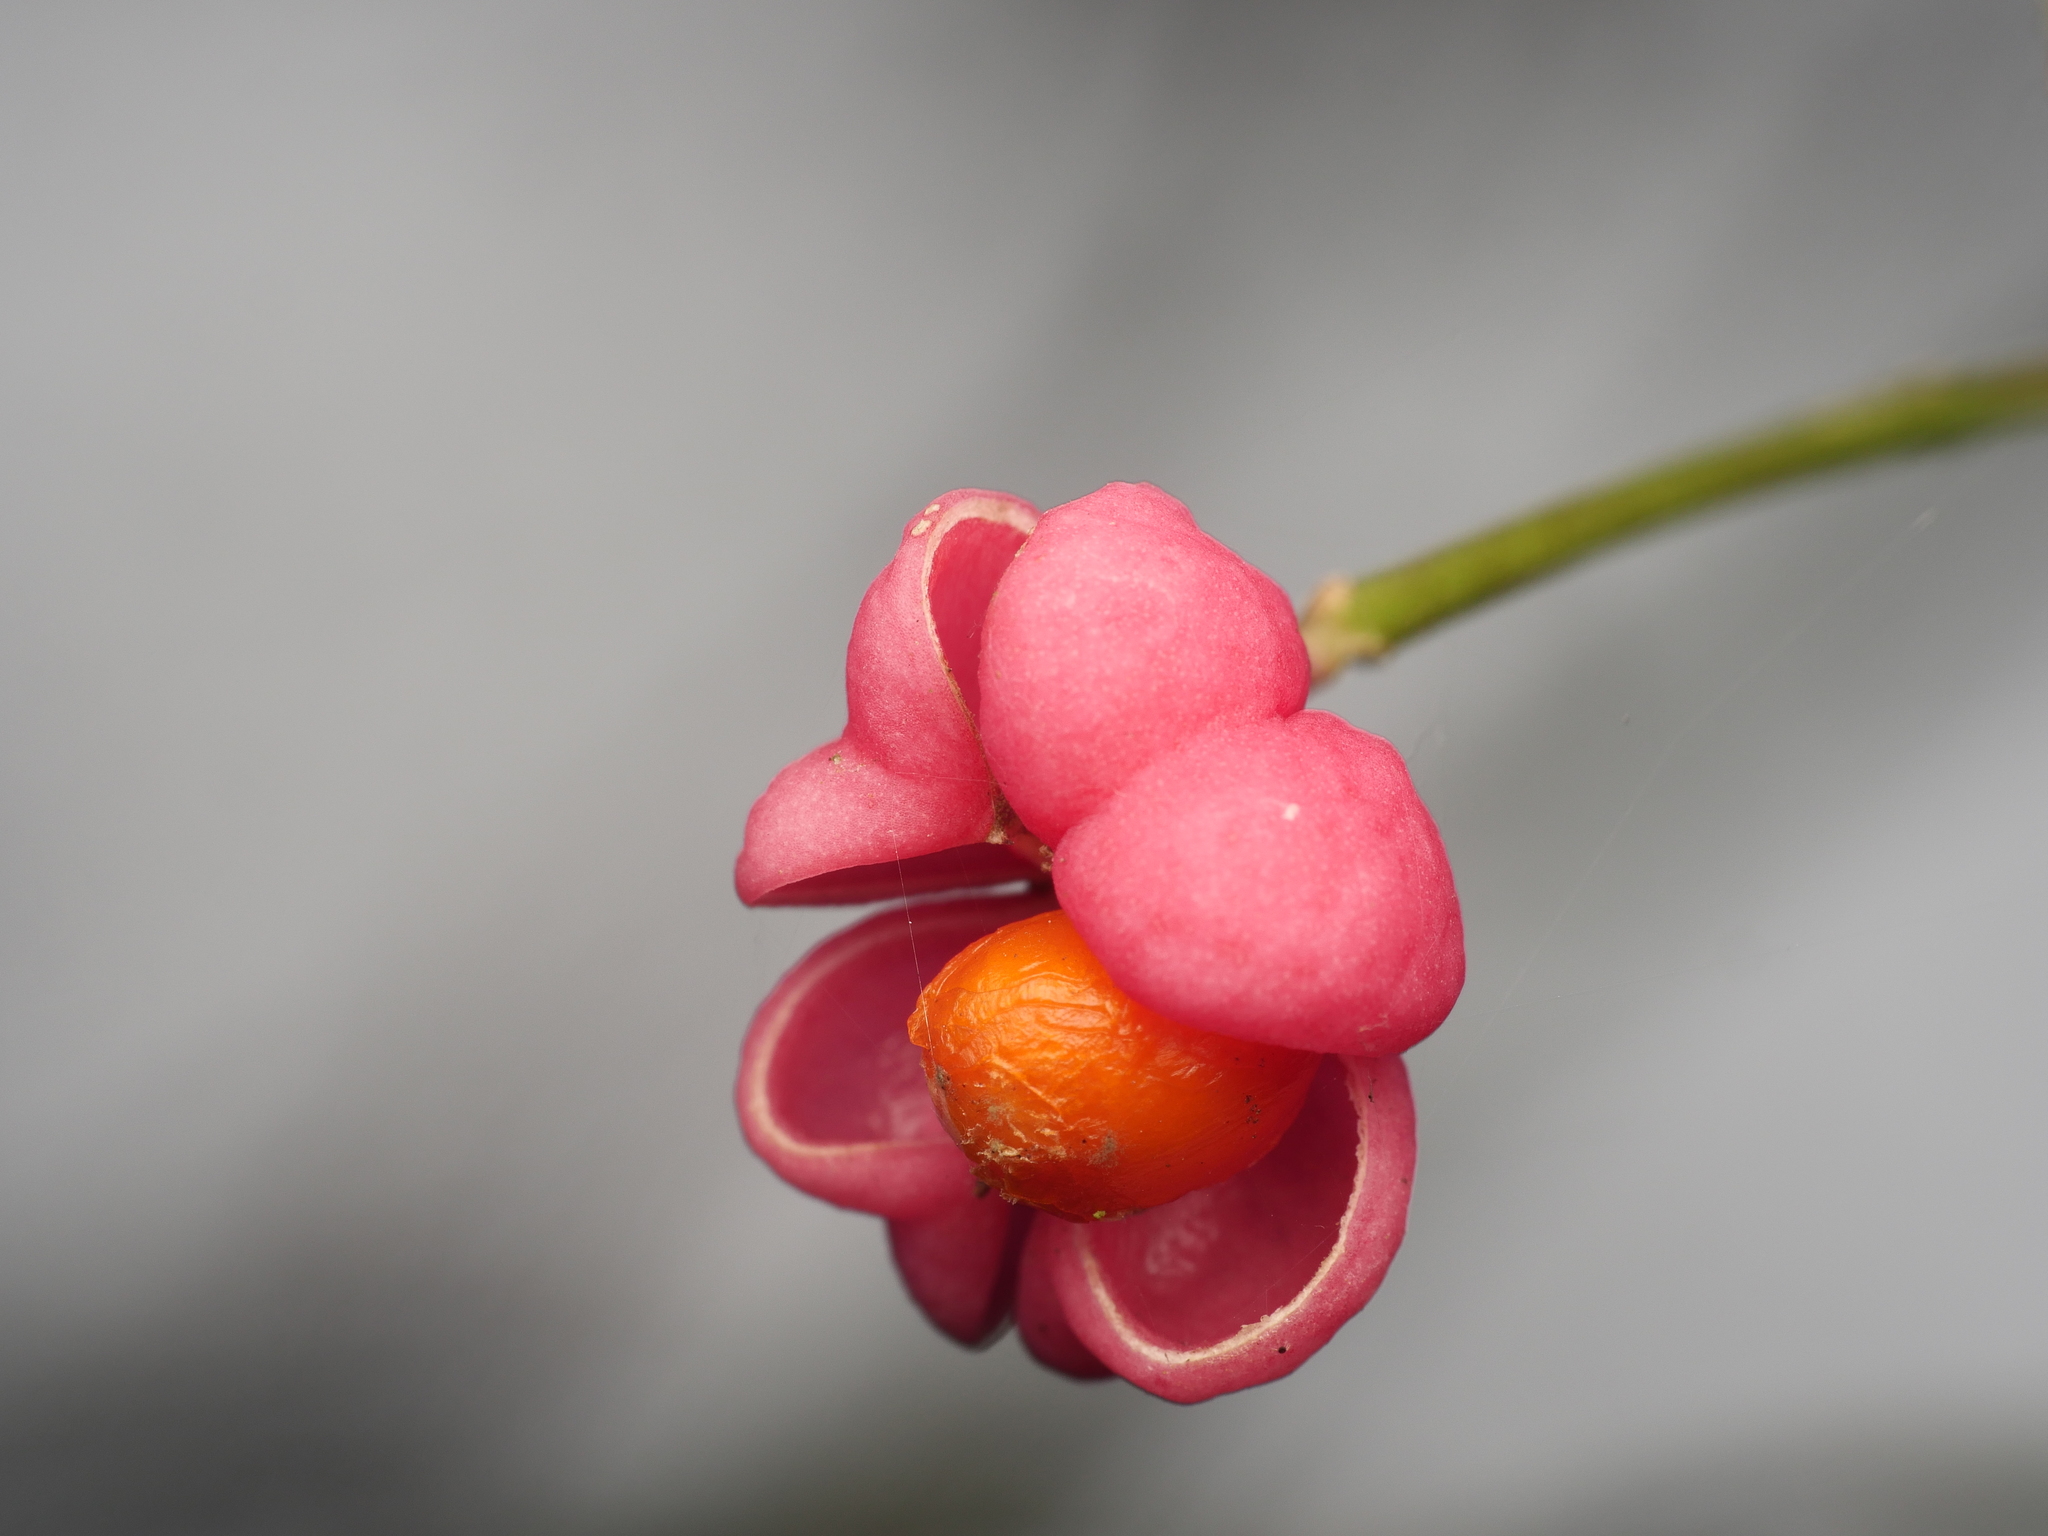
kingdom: Plantae
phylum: Tracheophyta
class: Magnoliopsida
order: Celastrales
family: Celastraceae
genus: Euonymus
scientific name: Euonymus europaeus
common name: Spindle
